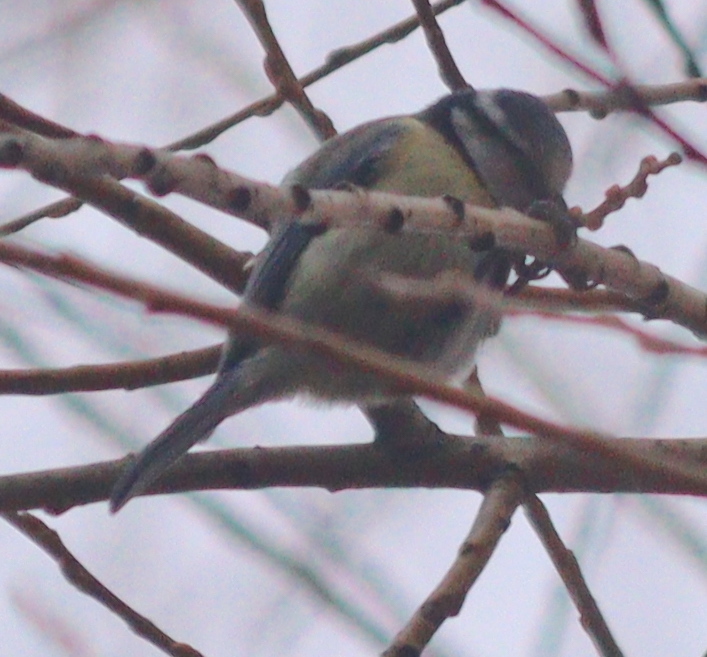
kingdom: Animalia
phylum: Chordata
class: Aves
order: Passeriformes
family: Paridae
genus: Cyanistes
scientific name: Cyanistes caeruleus
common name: Eurasian blue tit
